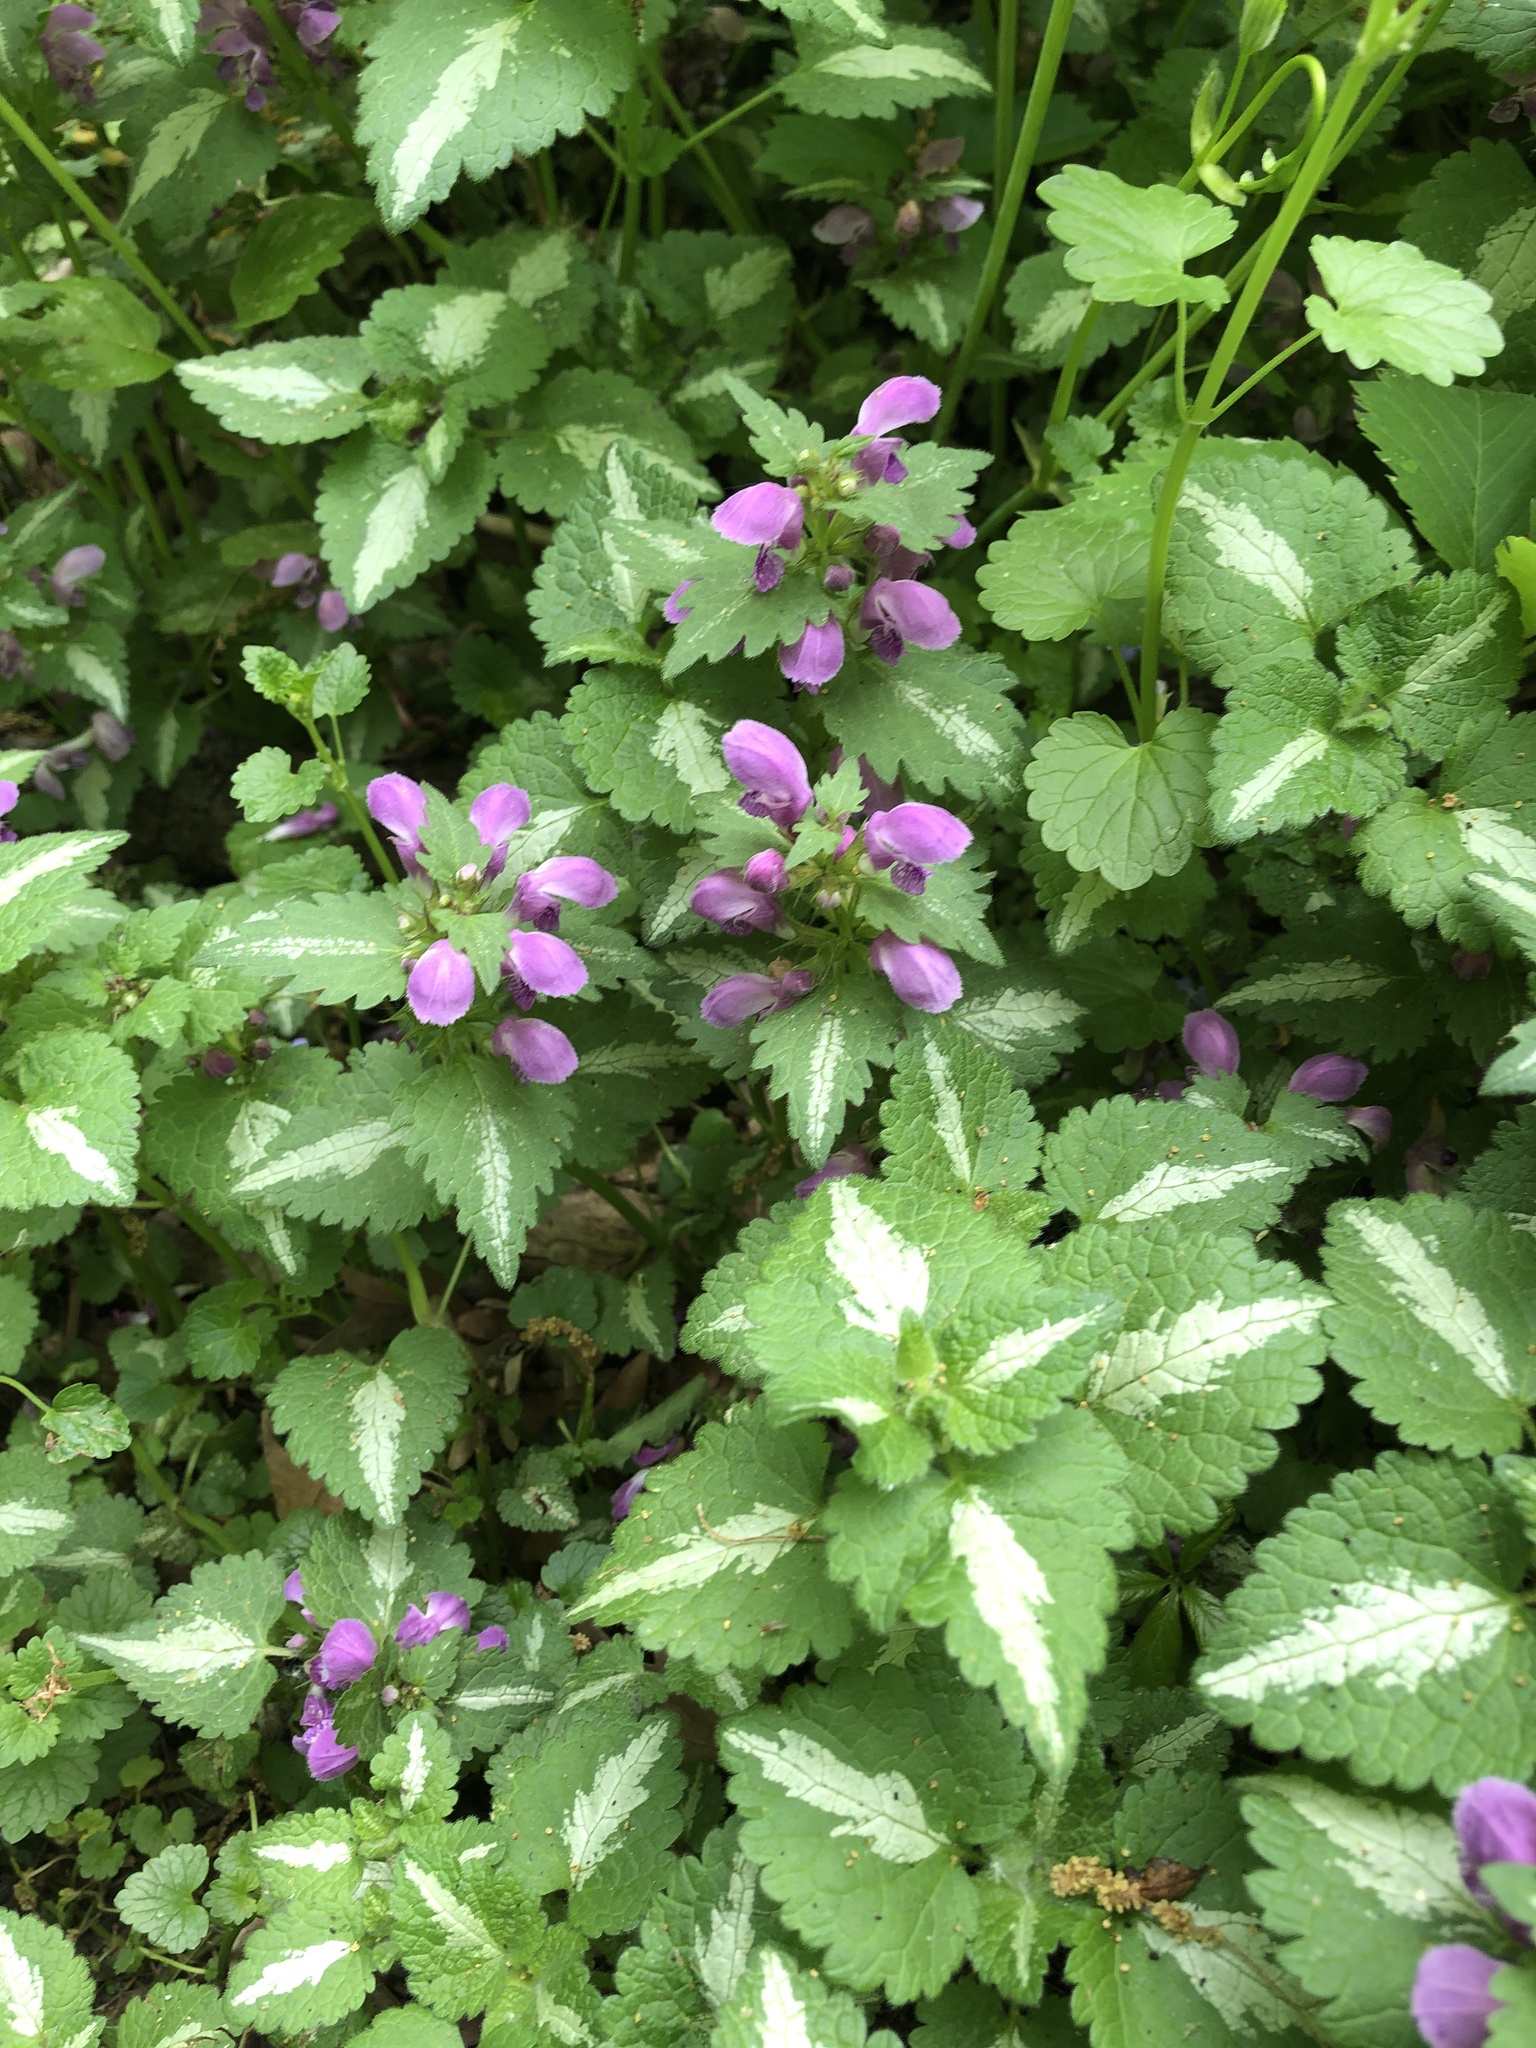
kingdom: Plantae
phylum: Tracheophyta
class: Magnoliopsida
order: Lamiales
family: Lamiaceae
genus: Lamium
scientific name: Lamium maculatum
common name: Spotted dead-nettle
